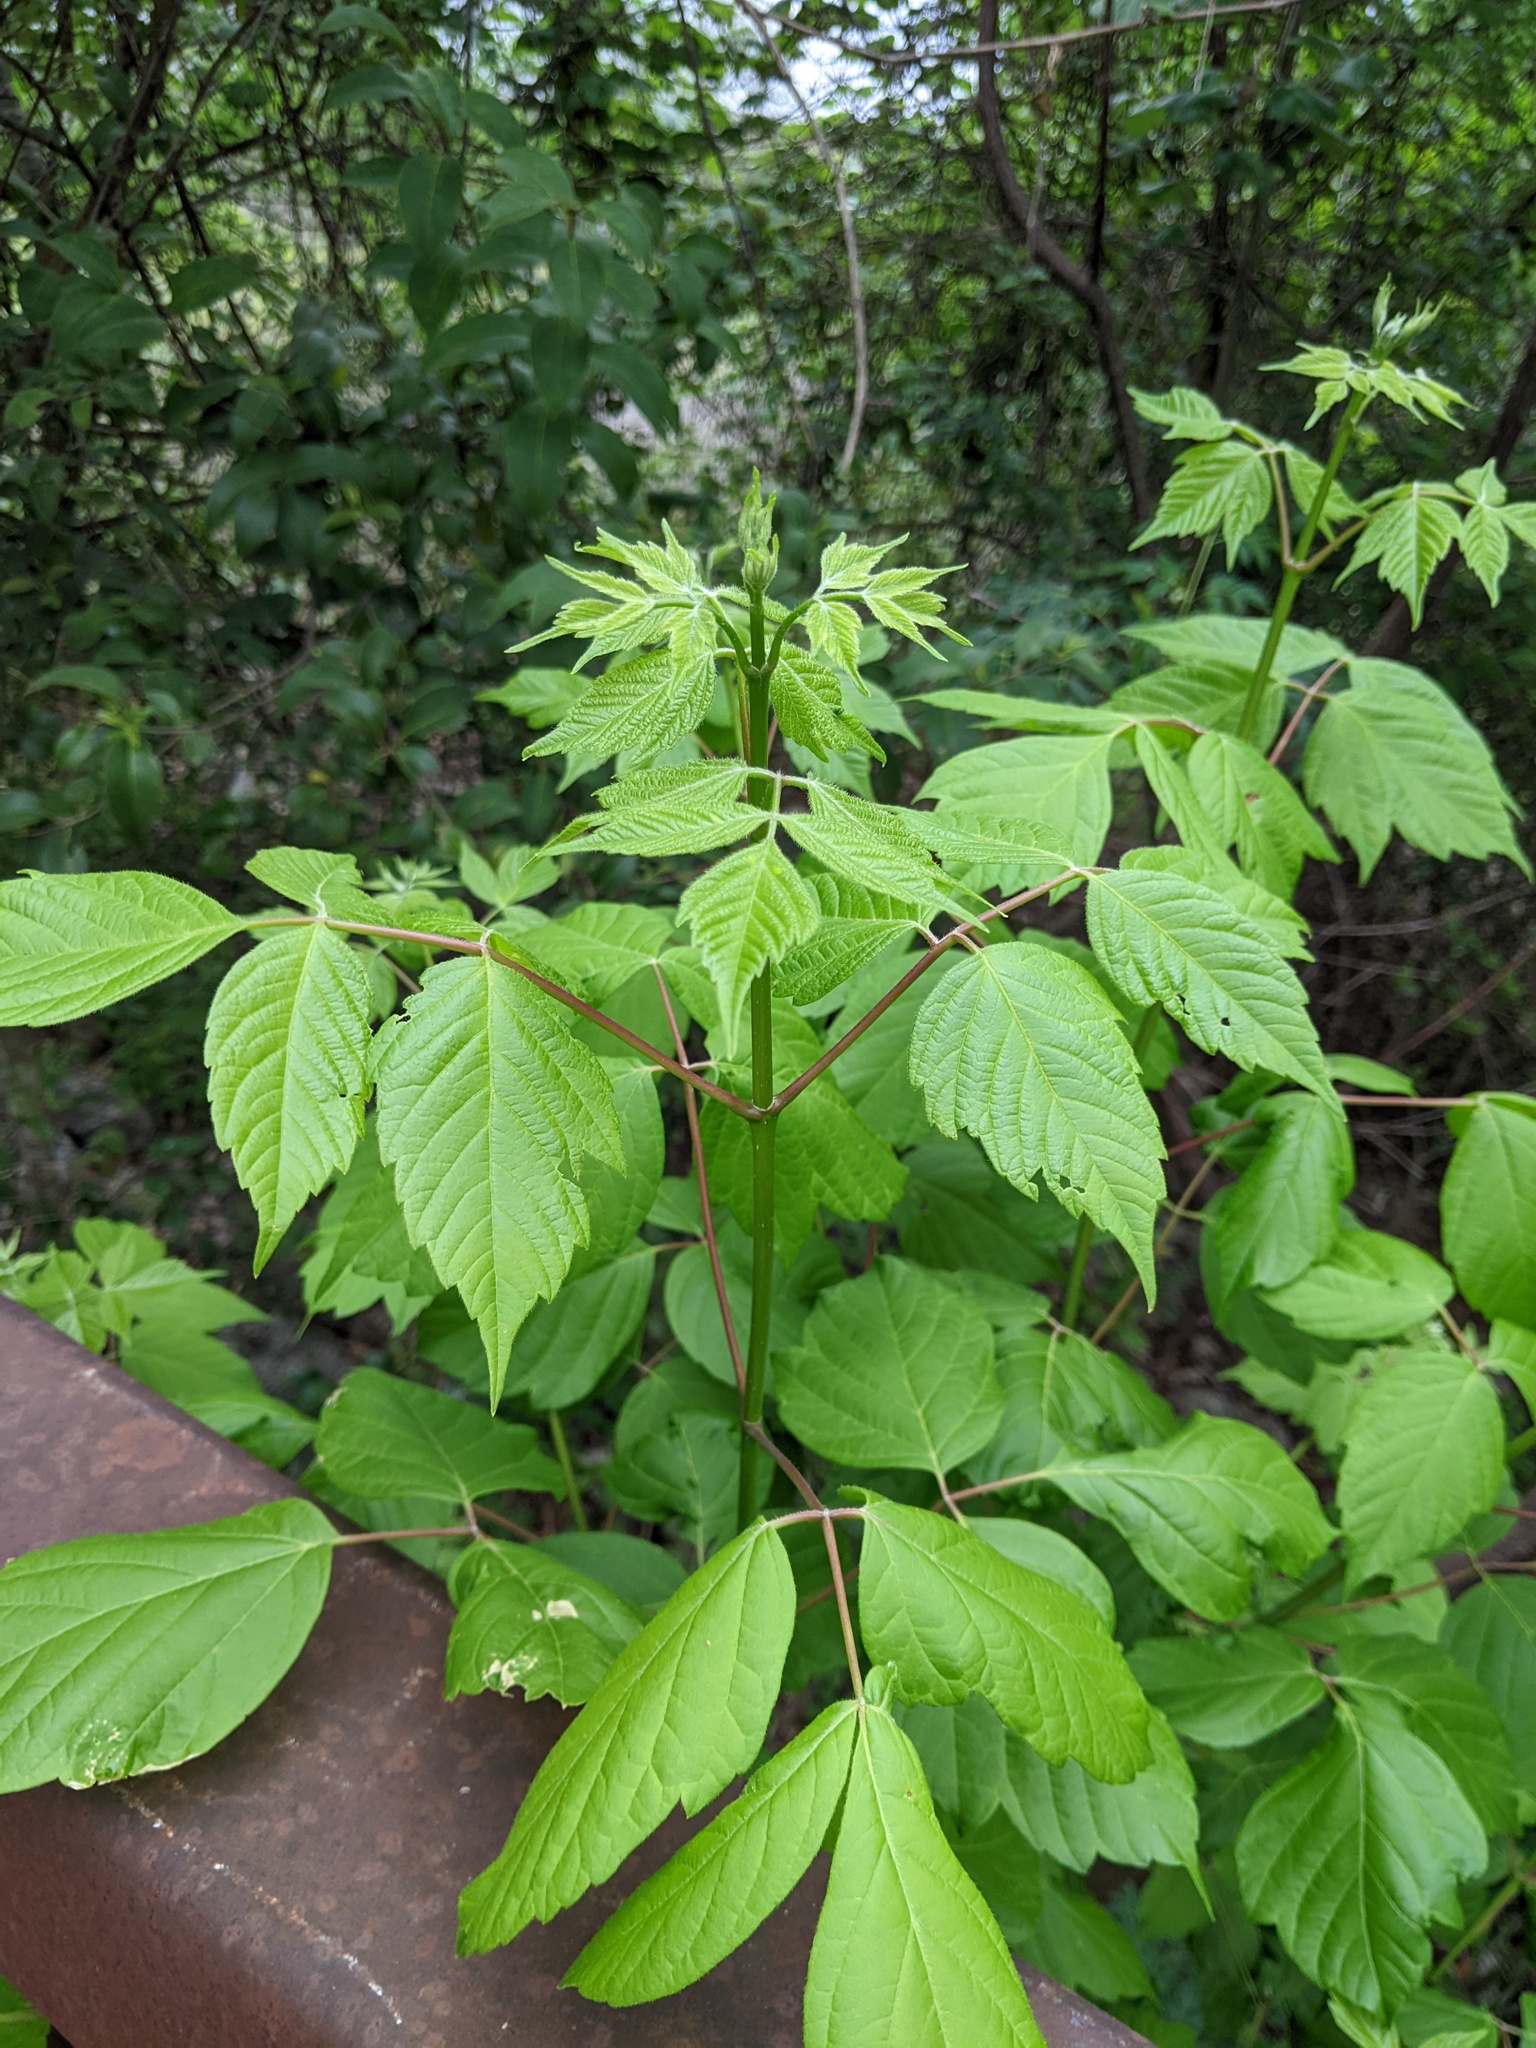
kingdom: Plantae
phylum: Tracheophyta
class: Magnoliopsida
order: Sapindales
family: Sapindaceae
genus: Acer
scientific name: Acer negundo
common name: Ashleaf maple
